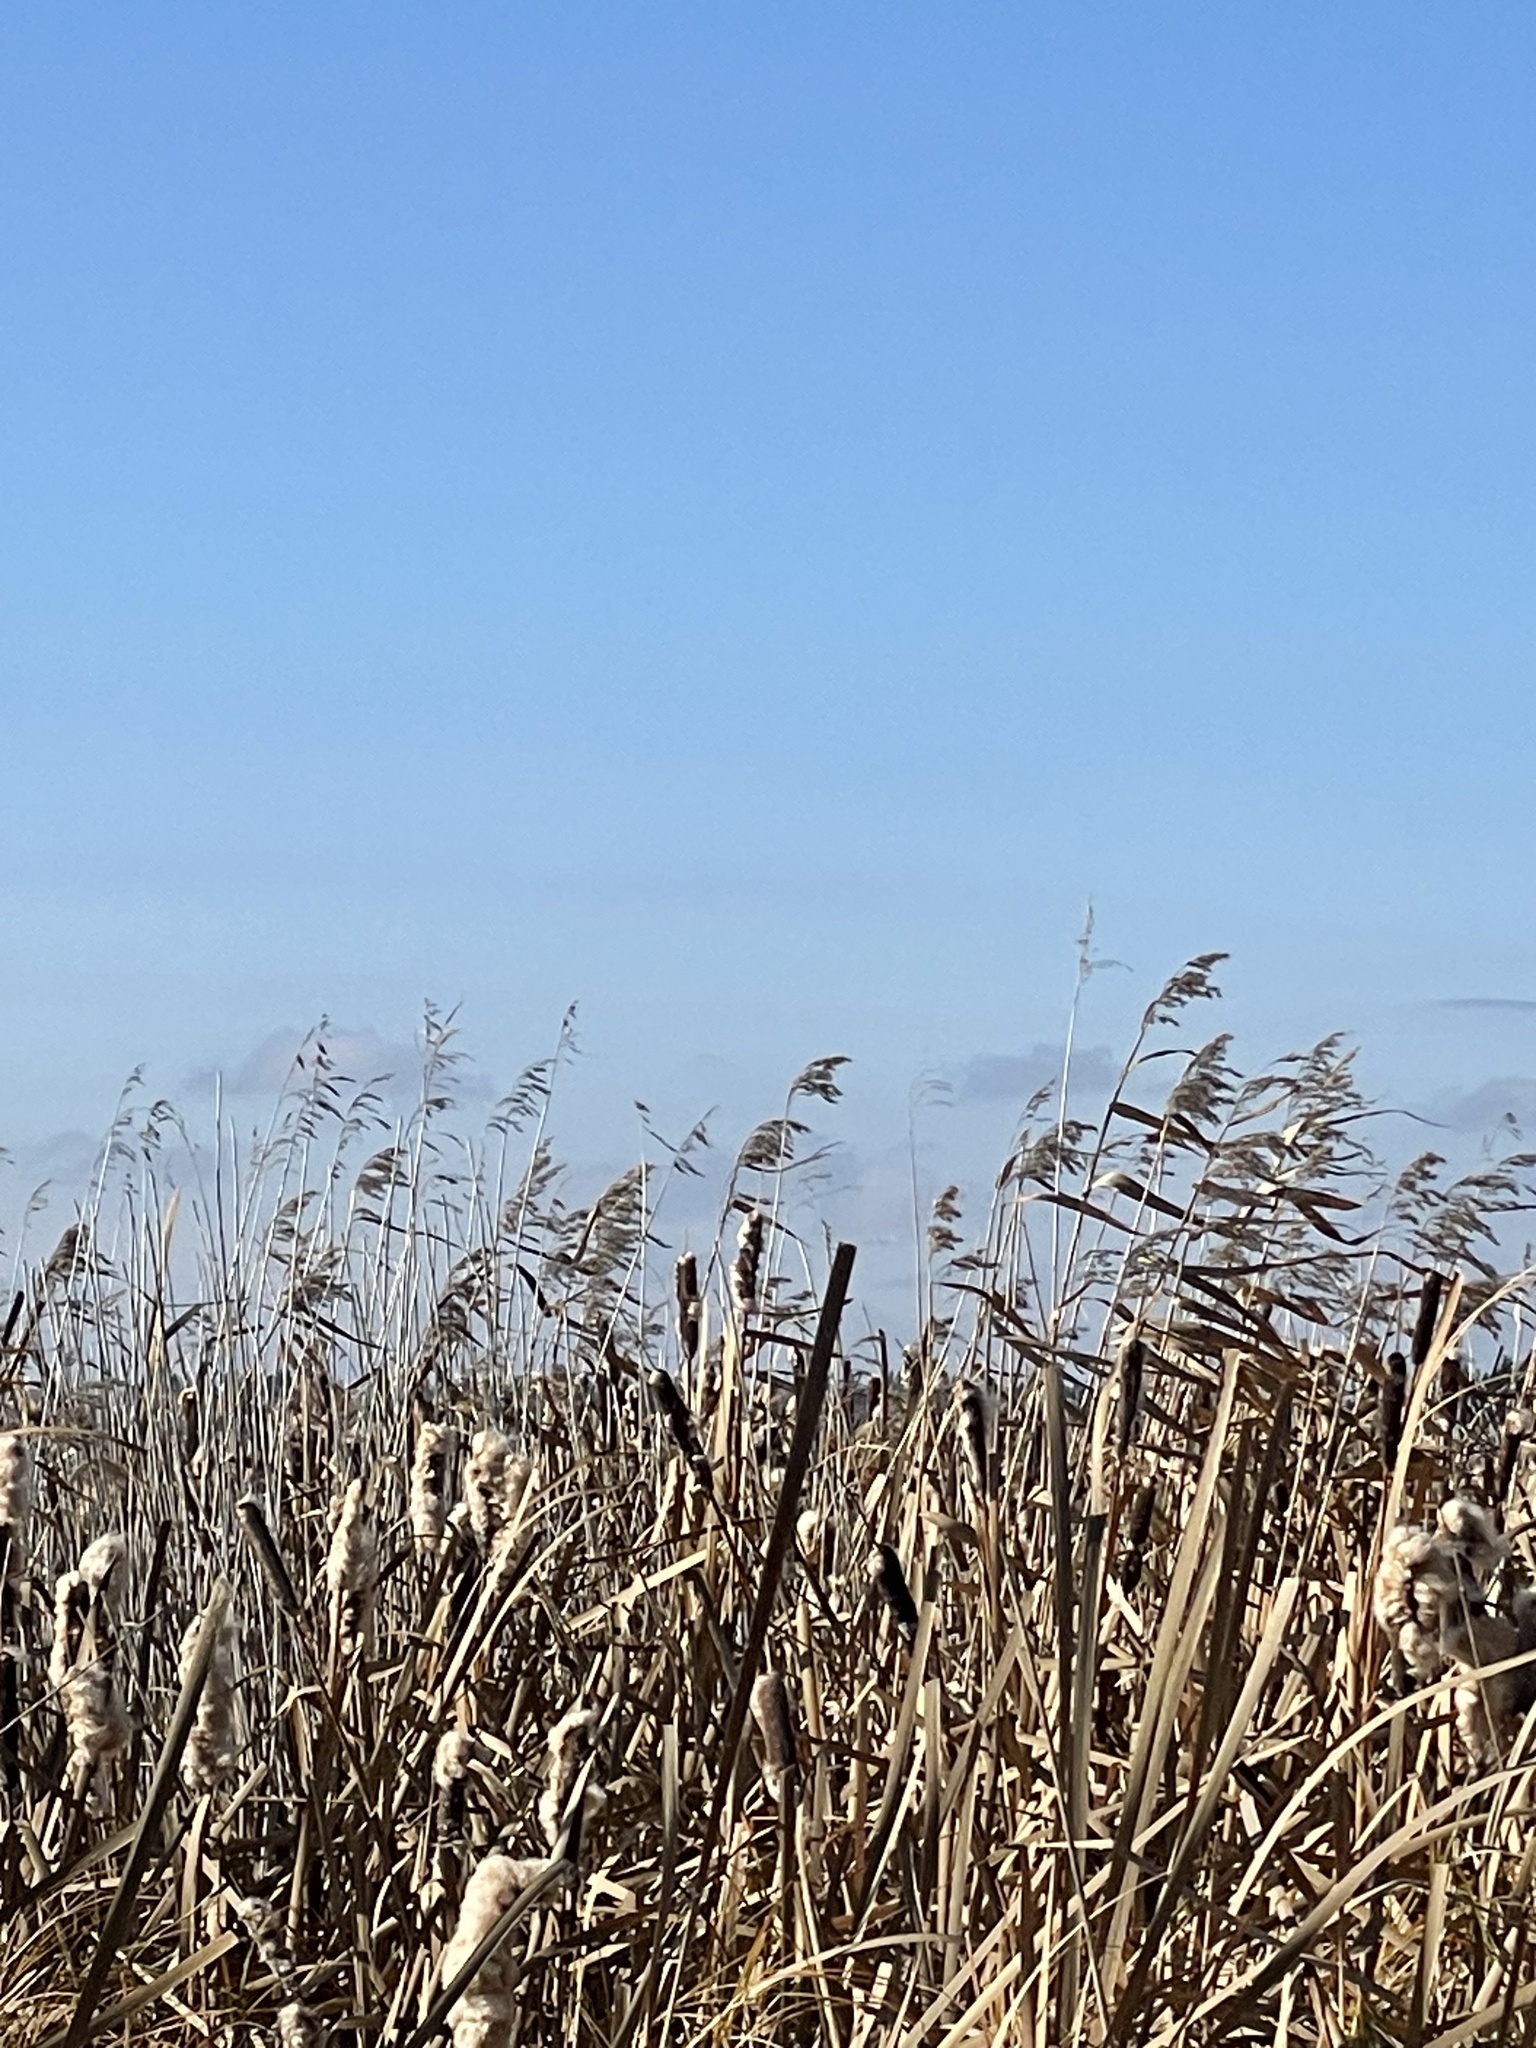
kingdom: Plantae
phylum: Tracheophyta
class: Liliopsida
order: Poales
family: Poaceae
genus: Phragmites
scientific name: Phragmites australis
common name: Common reed
